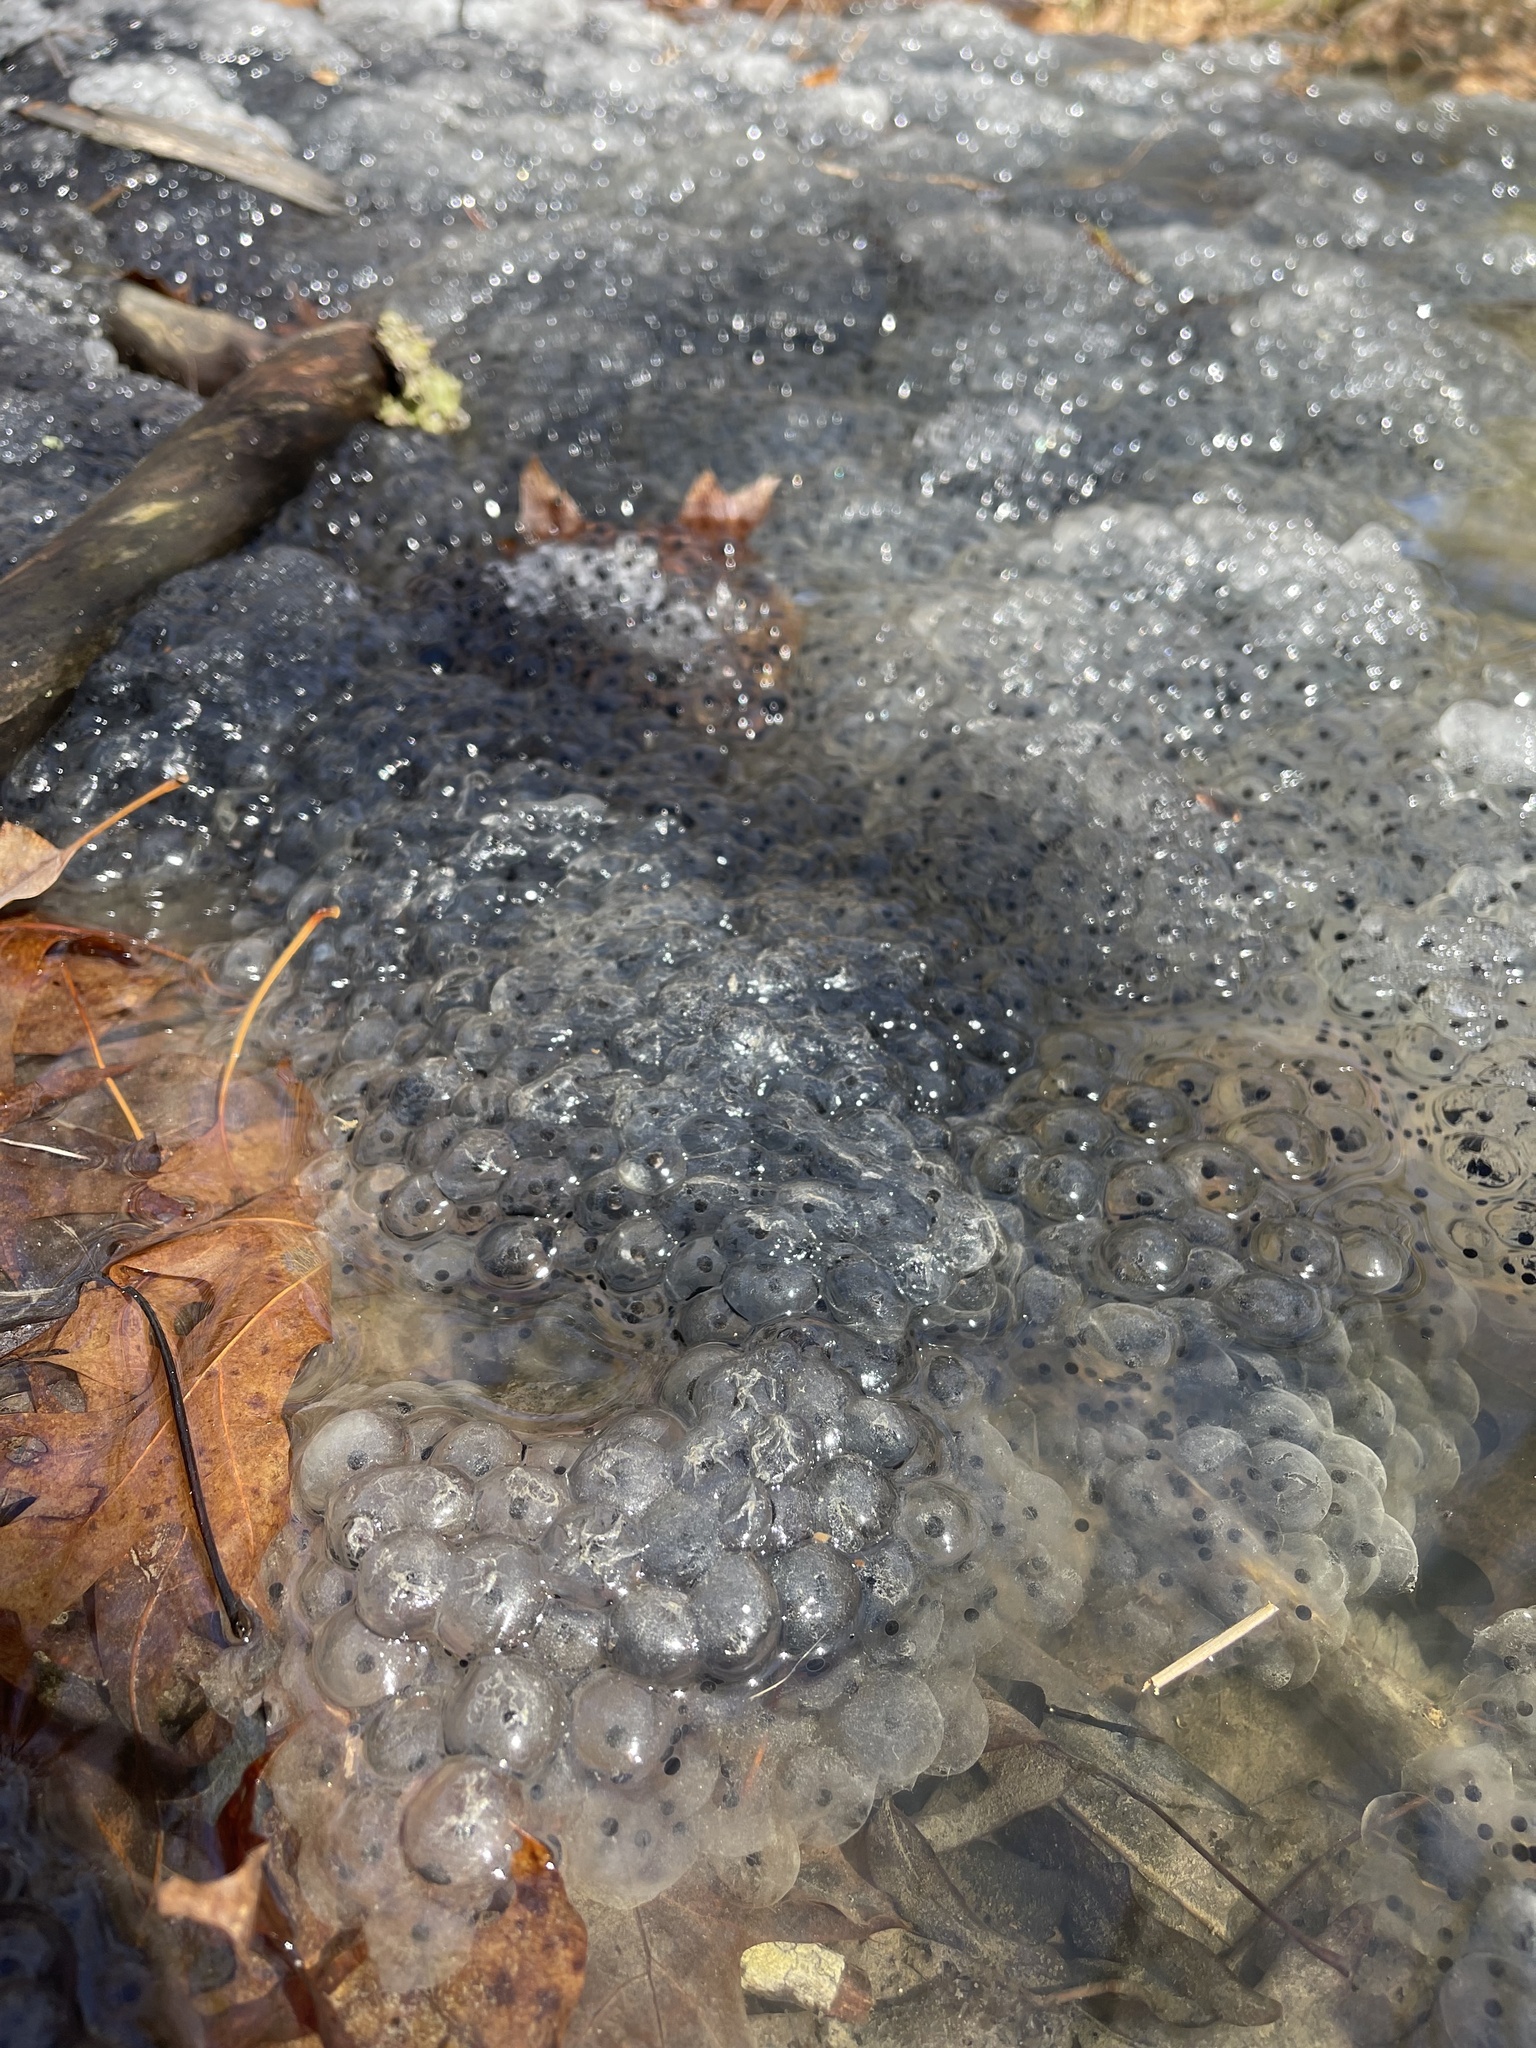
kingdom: Animalia
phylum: Chordata
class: Amphibia
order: Anura
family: Ranidae
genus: Lithobates
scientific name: Lithobates sylvaticus
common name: Wood frog
